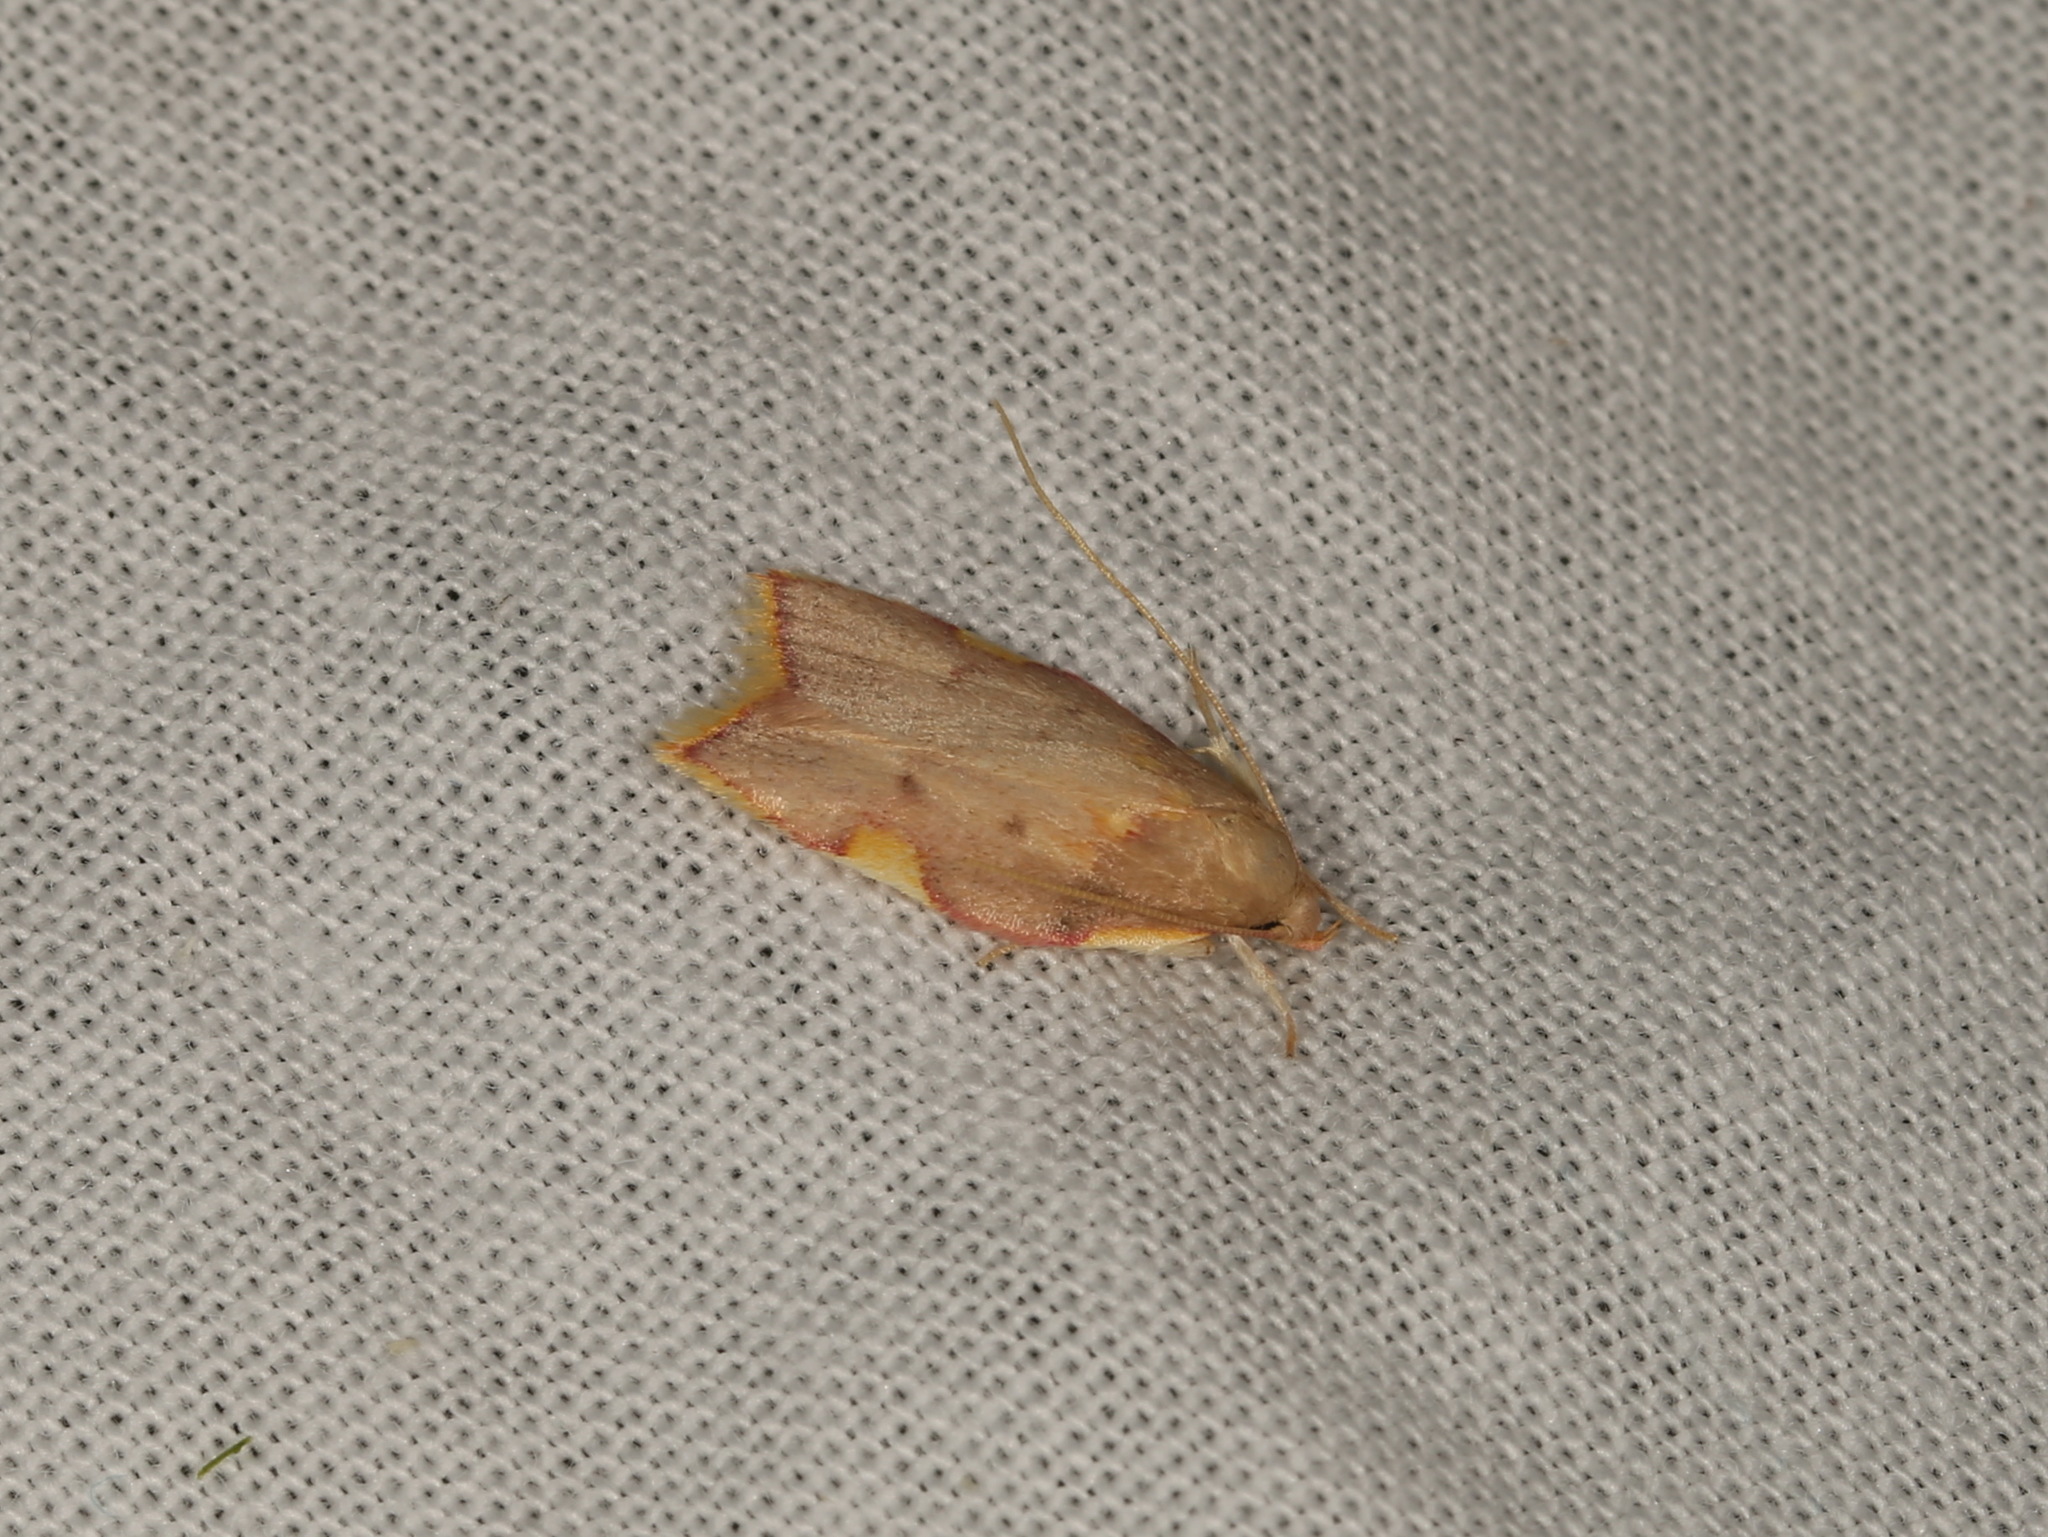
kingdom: Animalia
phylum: Arthropoda
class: Insecta
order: Lepidoptera
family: Peleopodidae
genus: Carcina
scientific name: Carcina quercana
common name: Moth
